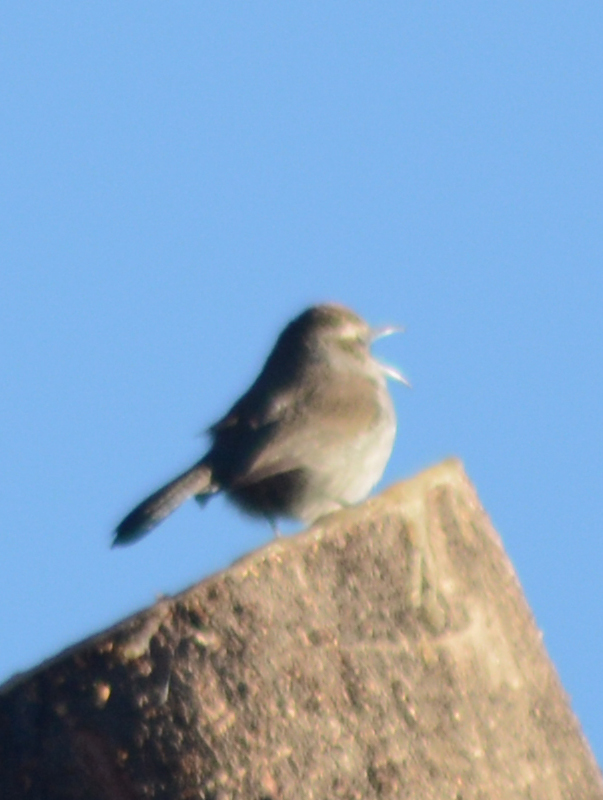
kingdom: Animalia
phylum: Chordata
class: Aves
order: Passeriformes
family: Troglodytidae
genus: Thryomanes
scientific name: Thryomanes bewickii
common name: Bewick's wren
